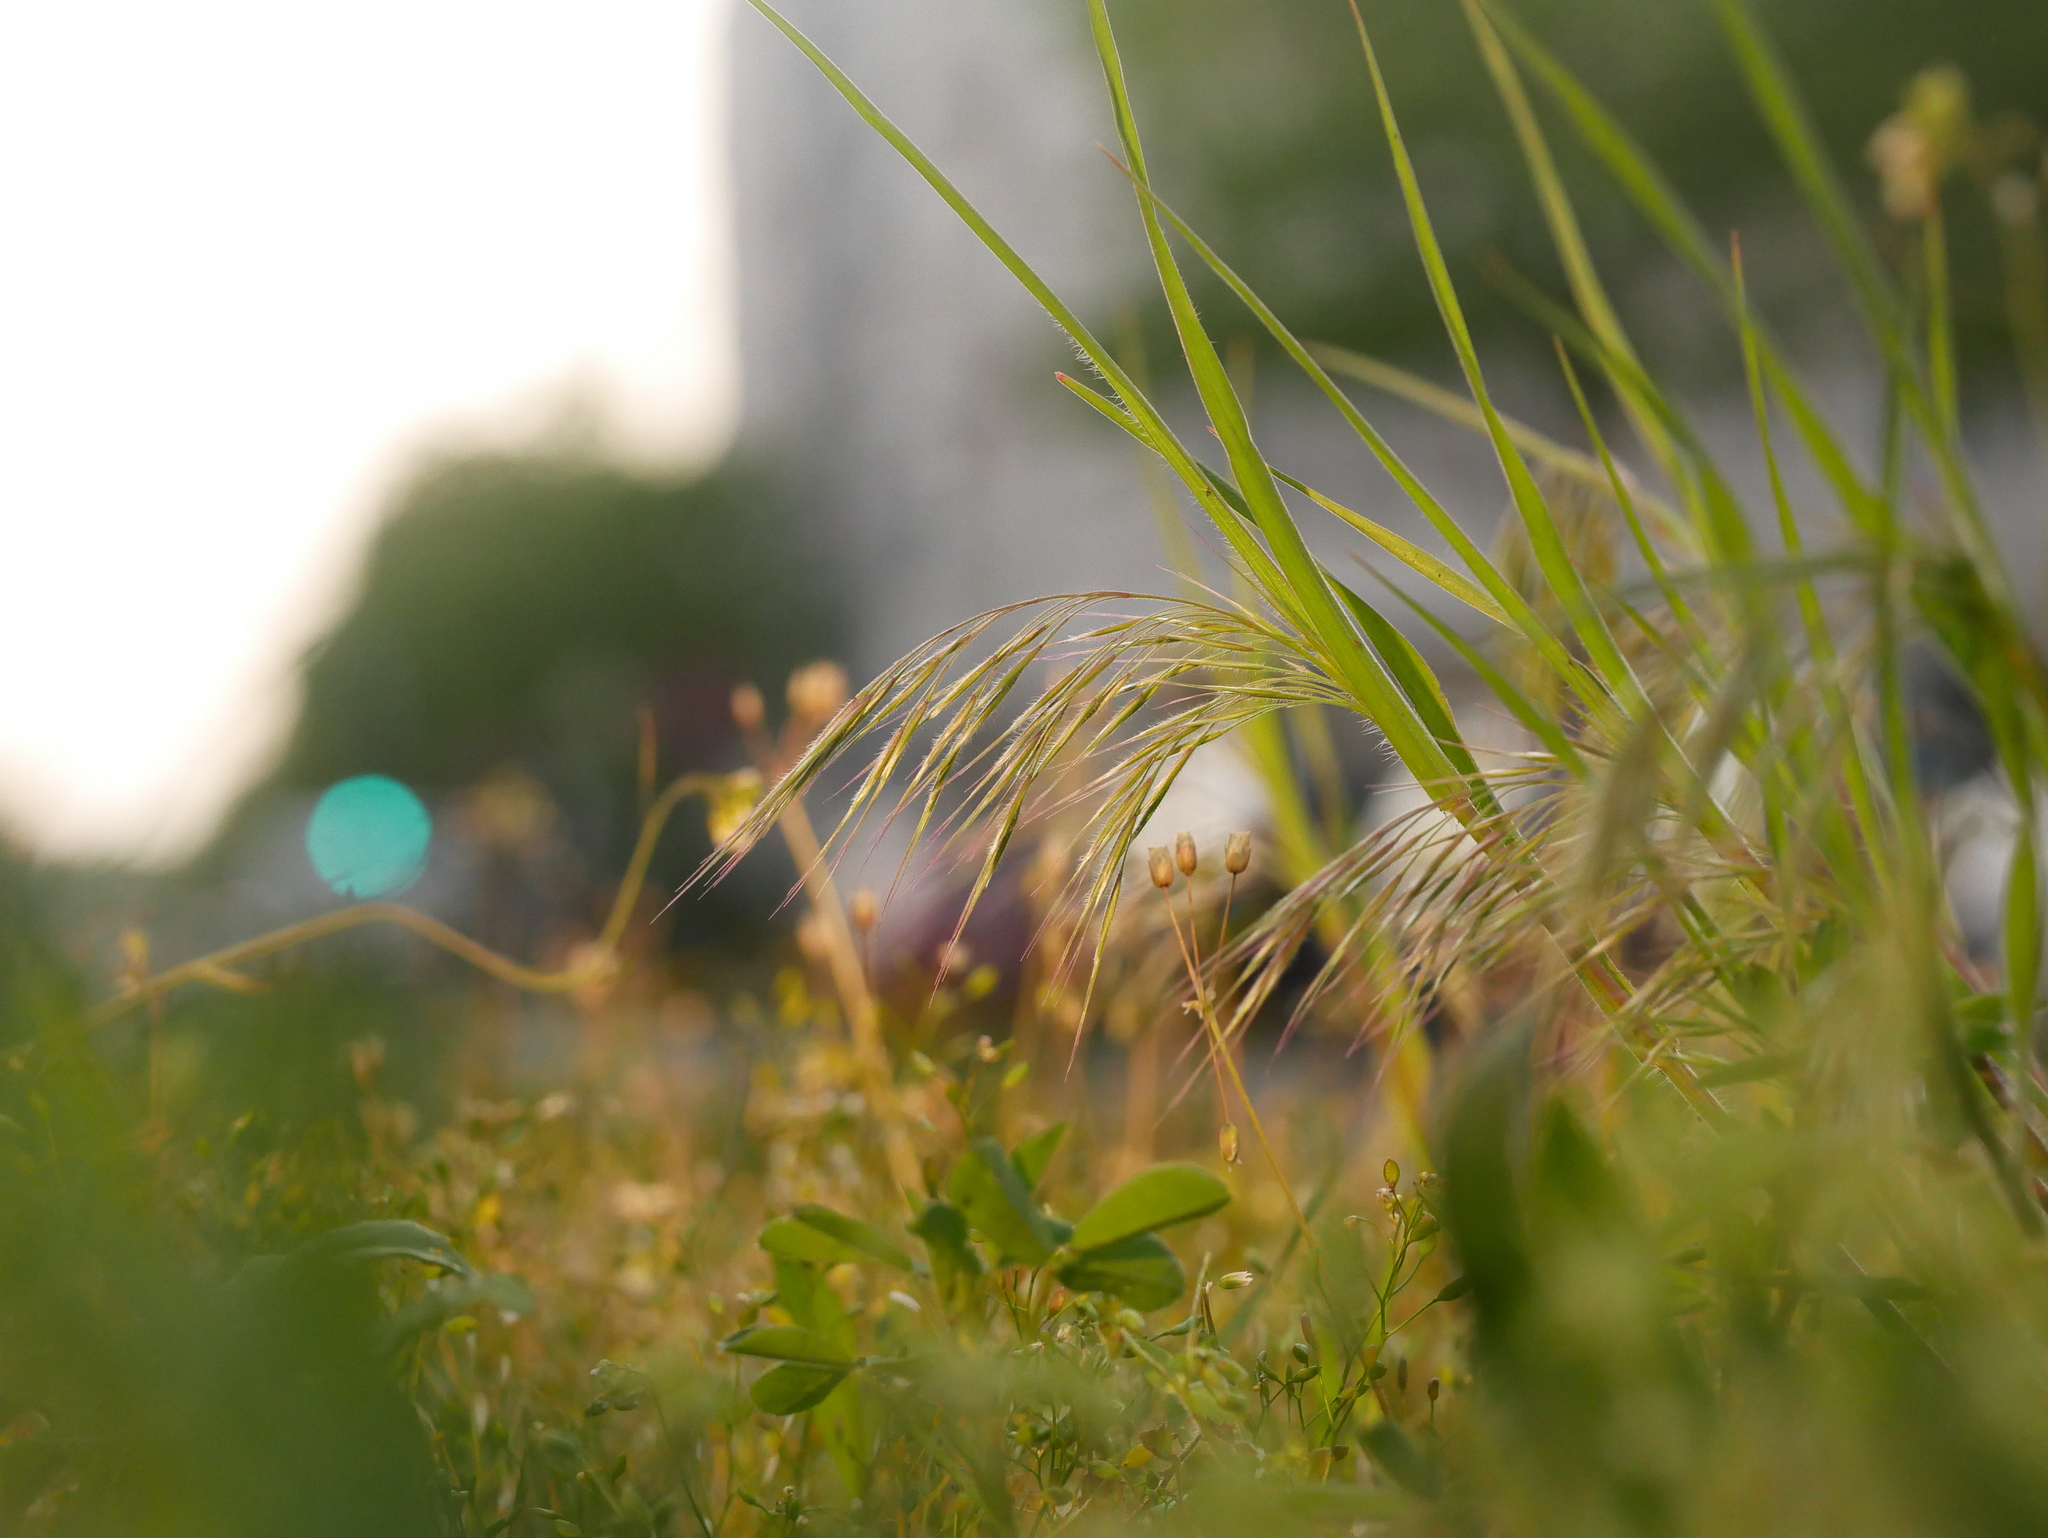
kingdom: Plantae
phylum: Tracheophyta
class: Liliopsida
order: Poales
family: Poaceae
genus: Bromus
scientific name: Bromus tectorum
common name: Cheatgrass
